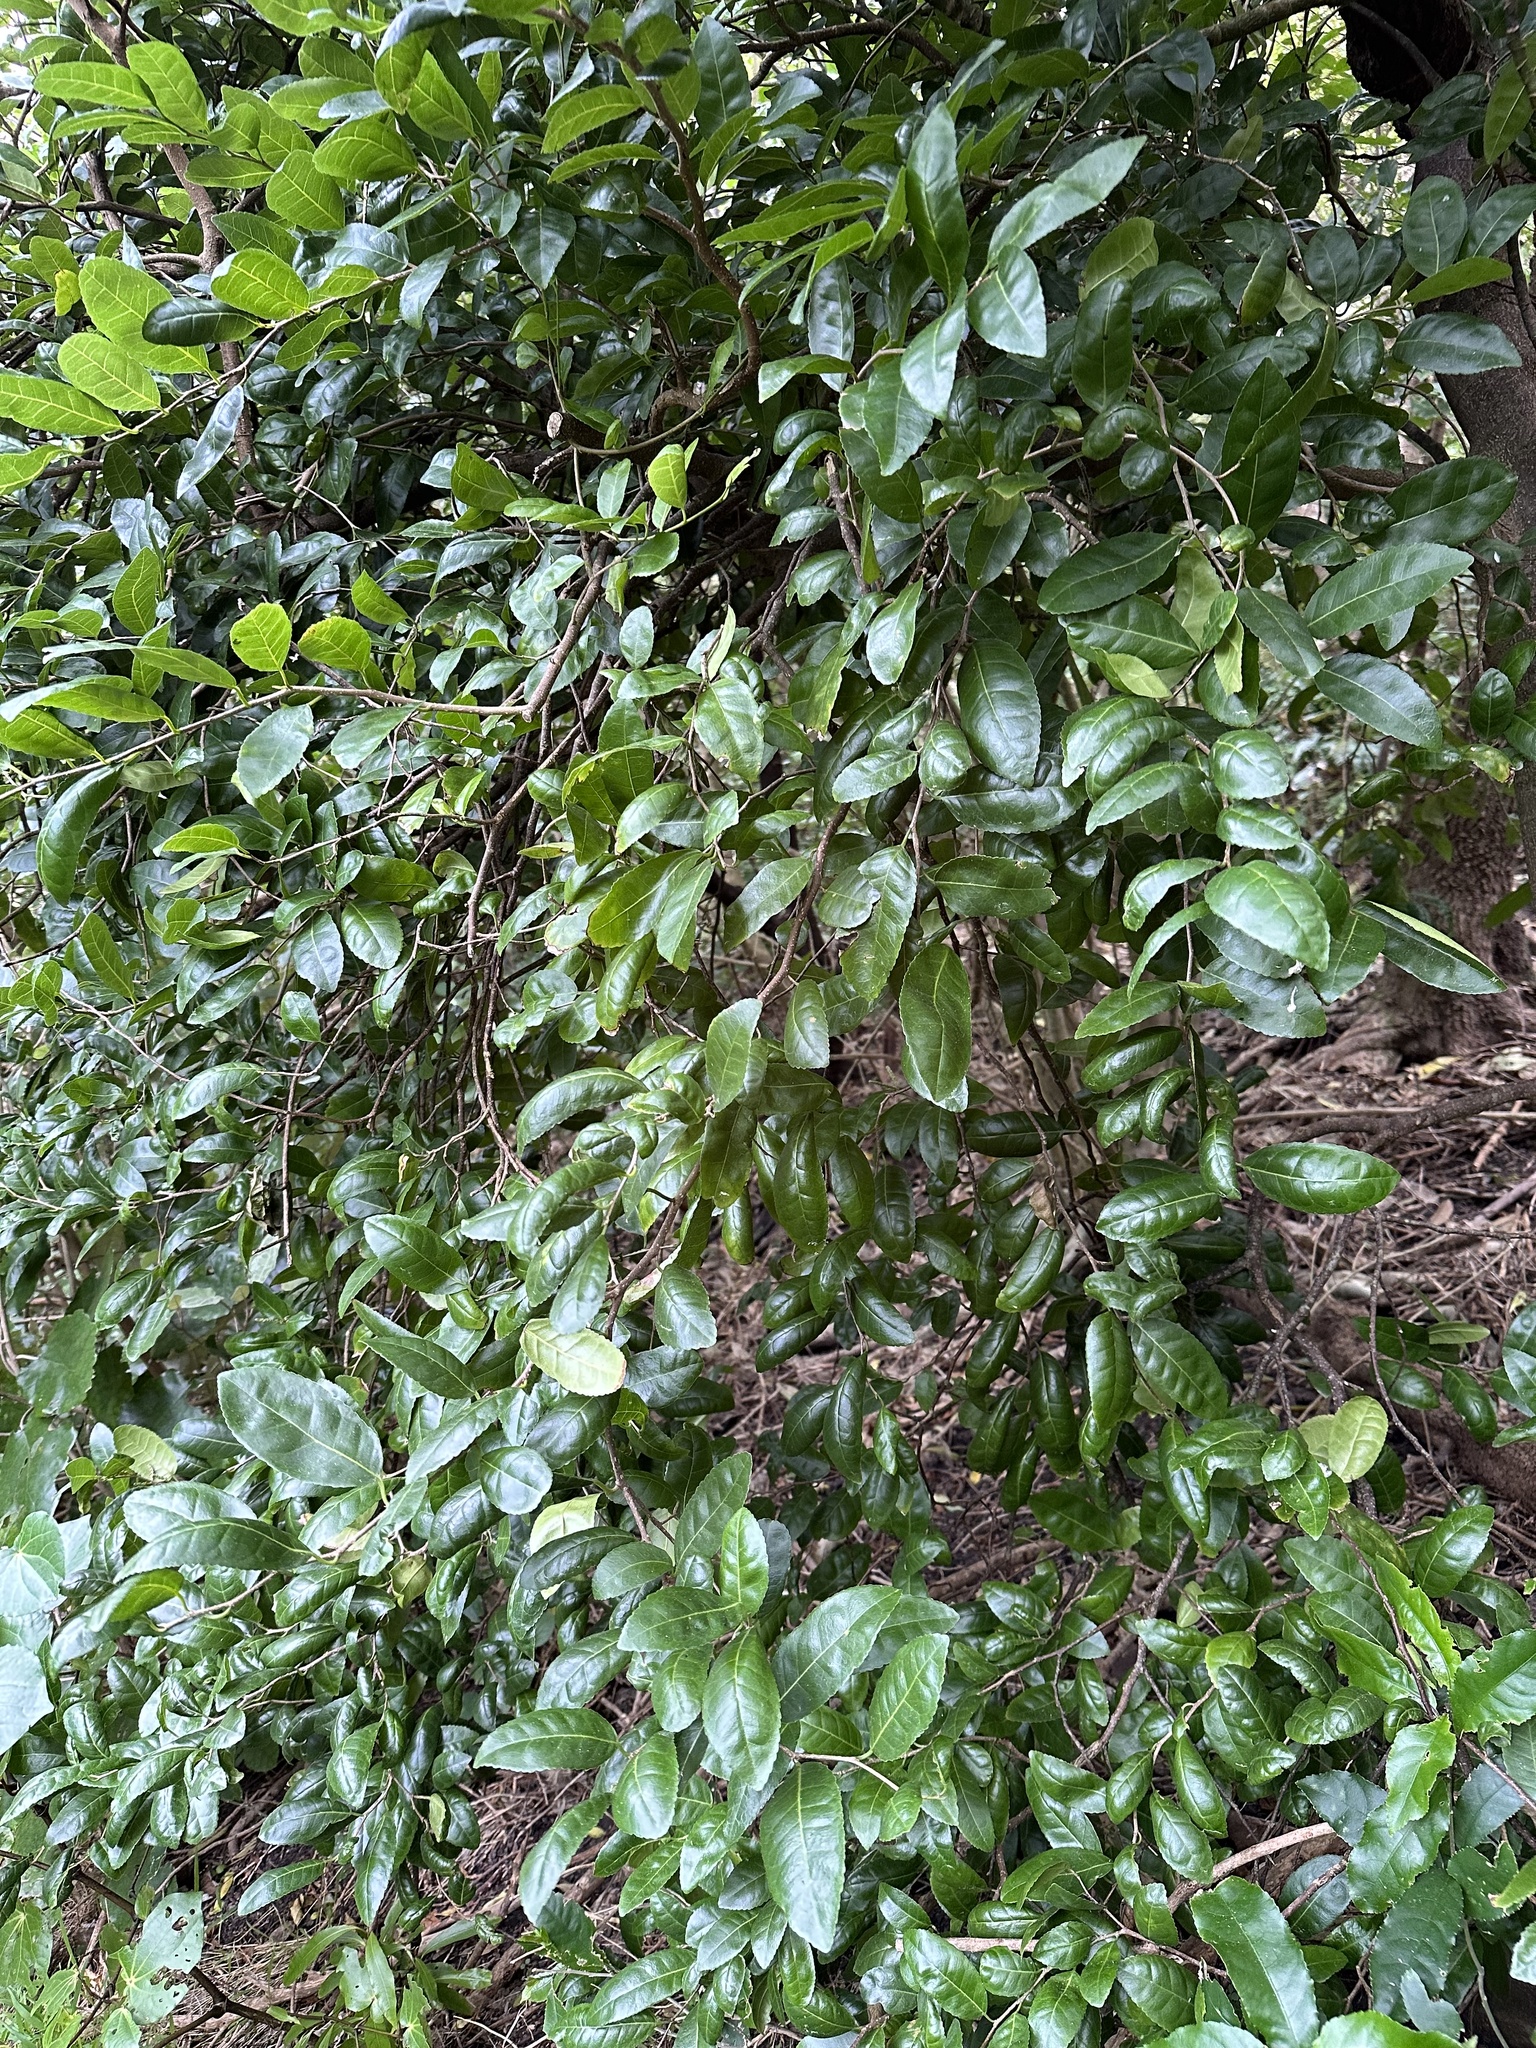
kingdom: Plantae
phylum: Tracheophyta
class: Magnoliopsida
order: Rosales
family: Moraceae
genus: Paratrophis
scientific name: Paratrophis banksii
